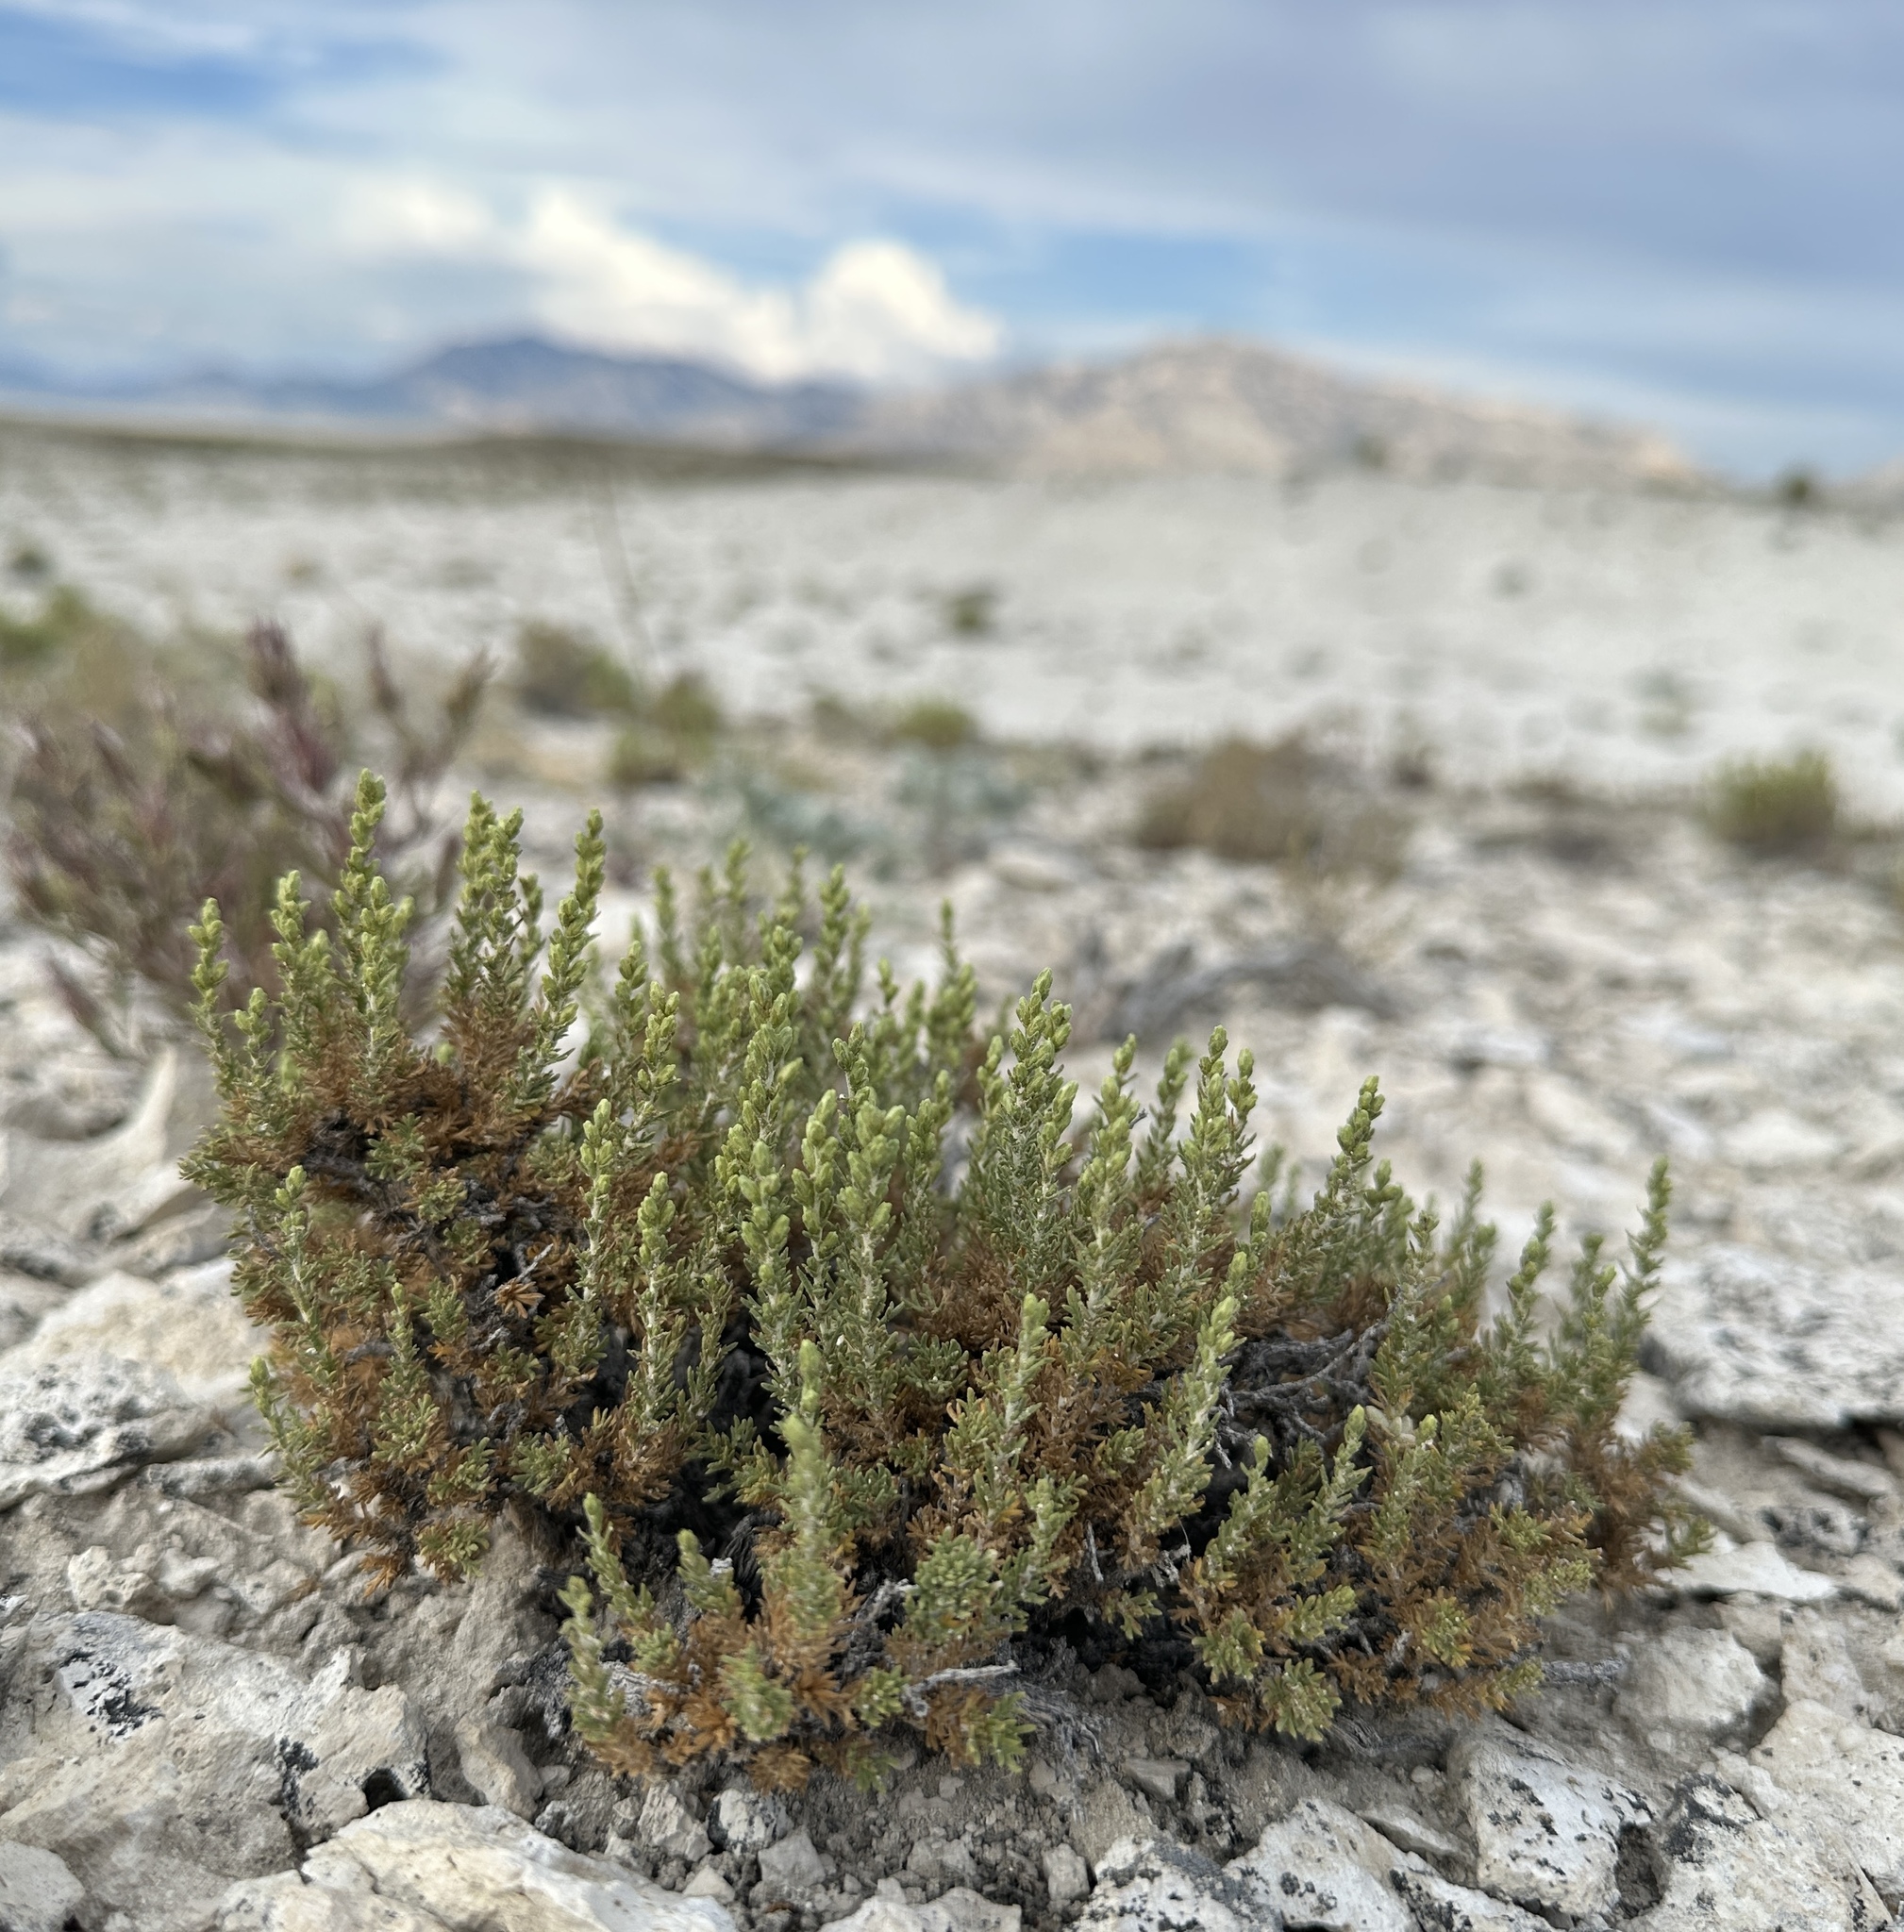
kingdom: Plantae
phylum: Tracheophyta
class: Magnoliopsida
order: Asterales
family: Asteraceae
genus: Artemisia
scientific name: Artemisia pygmaea
